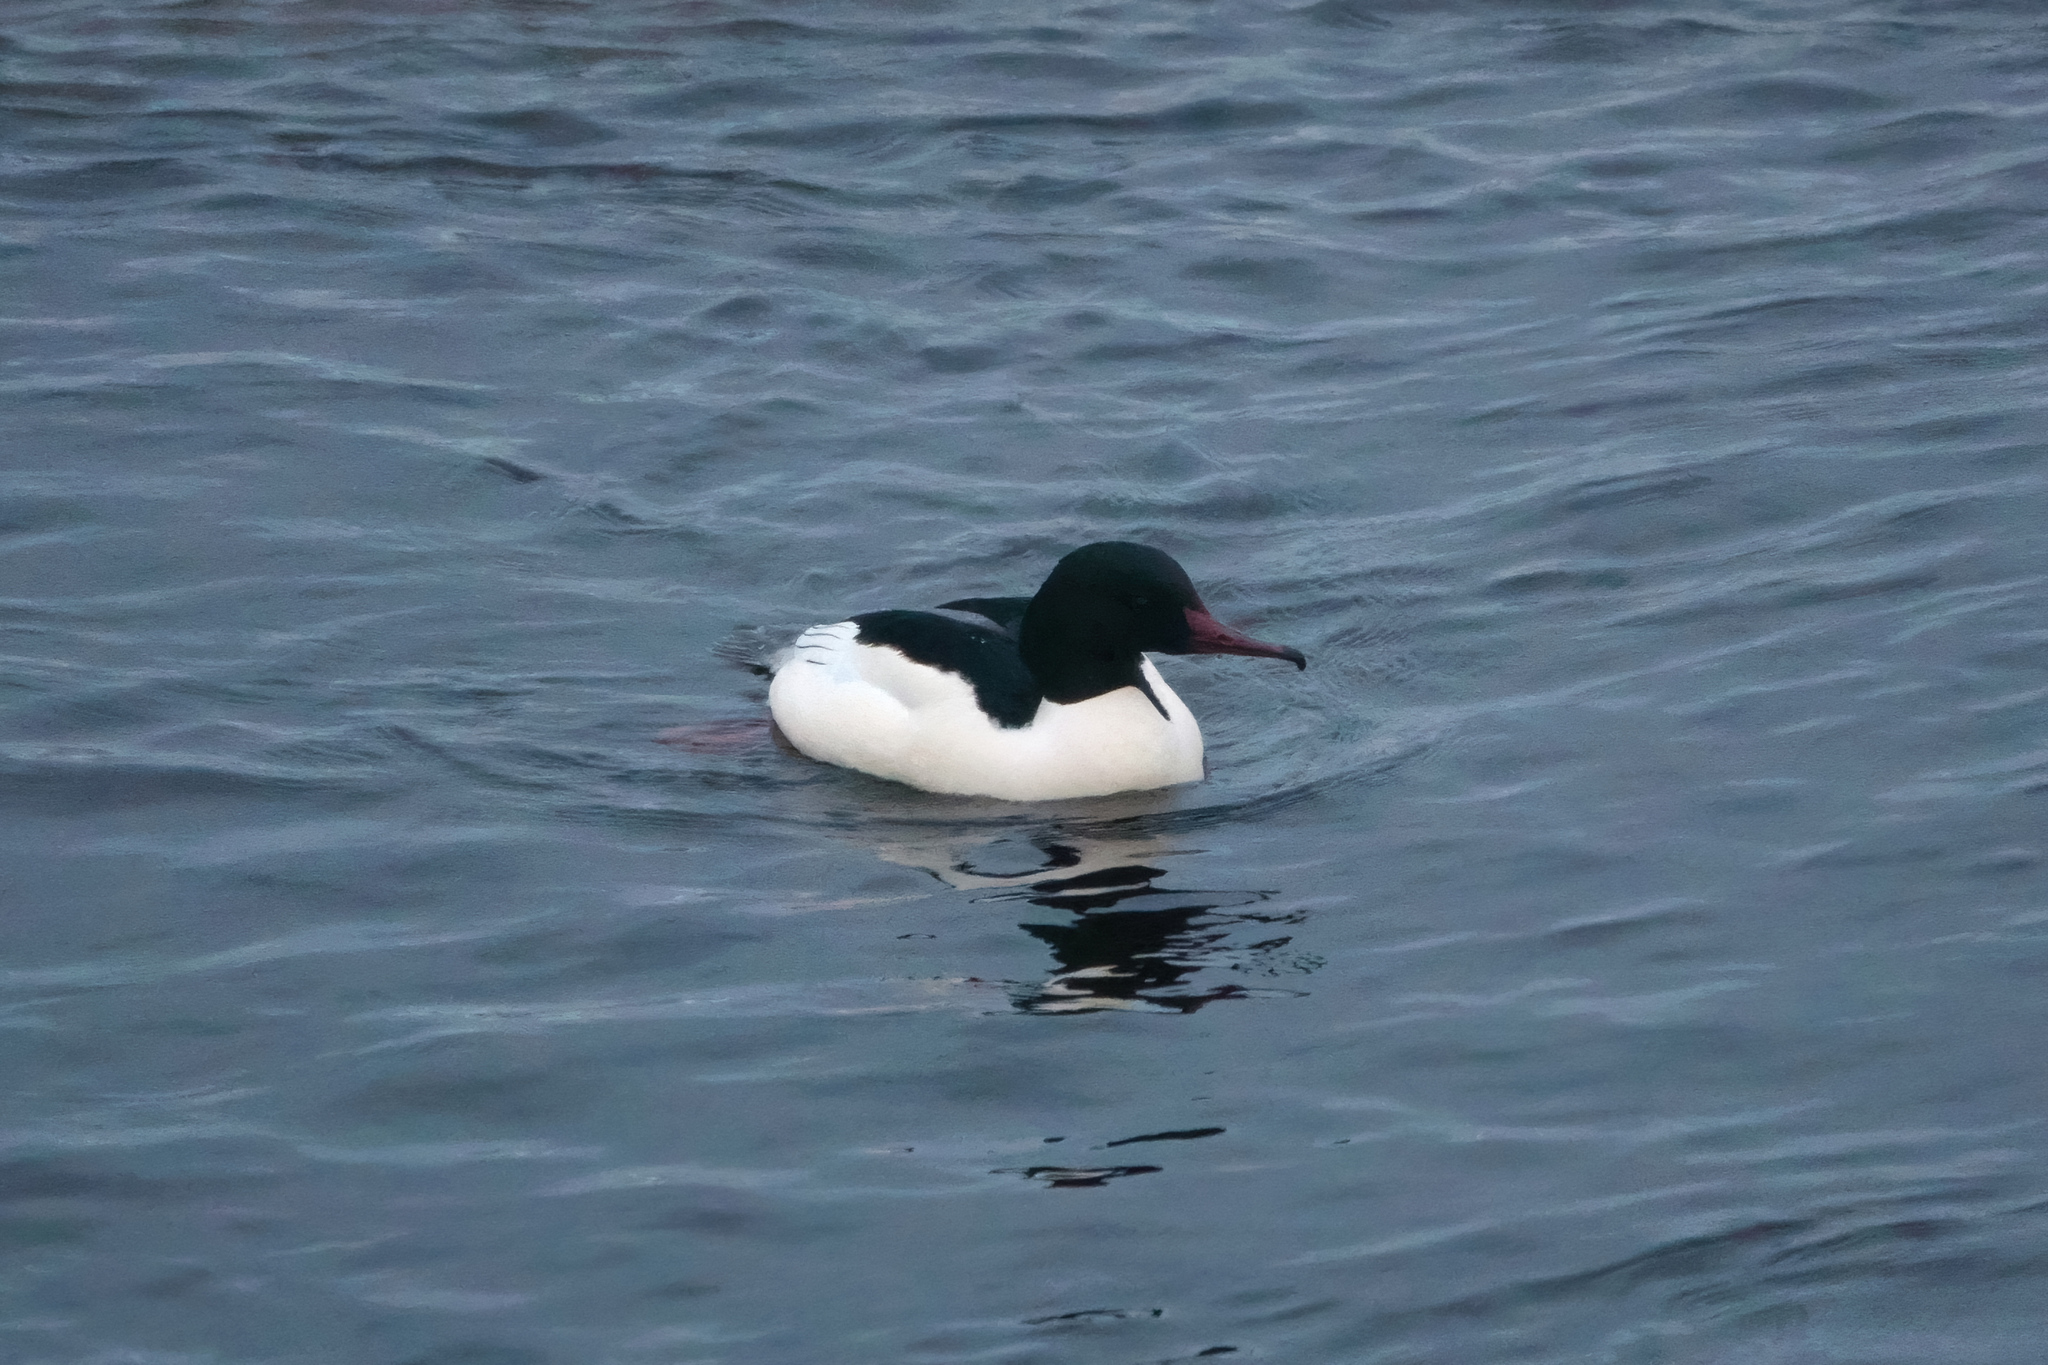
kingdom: Animalia
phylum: Chordata
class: Aves
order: Anseriformes
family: Anatidae
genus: Mergus
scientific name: Mergus merganser
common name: Common merganser
